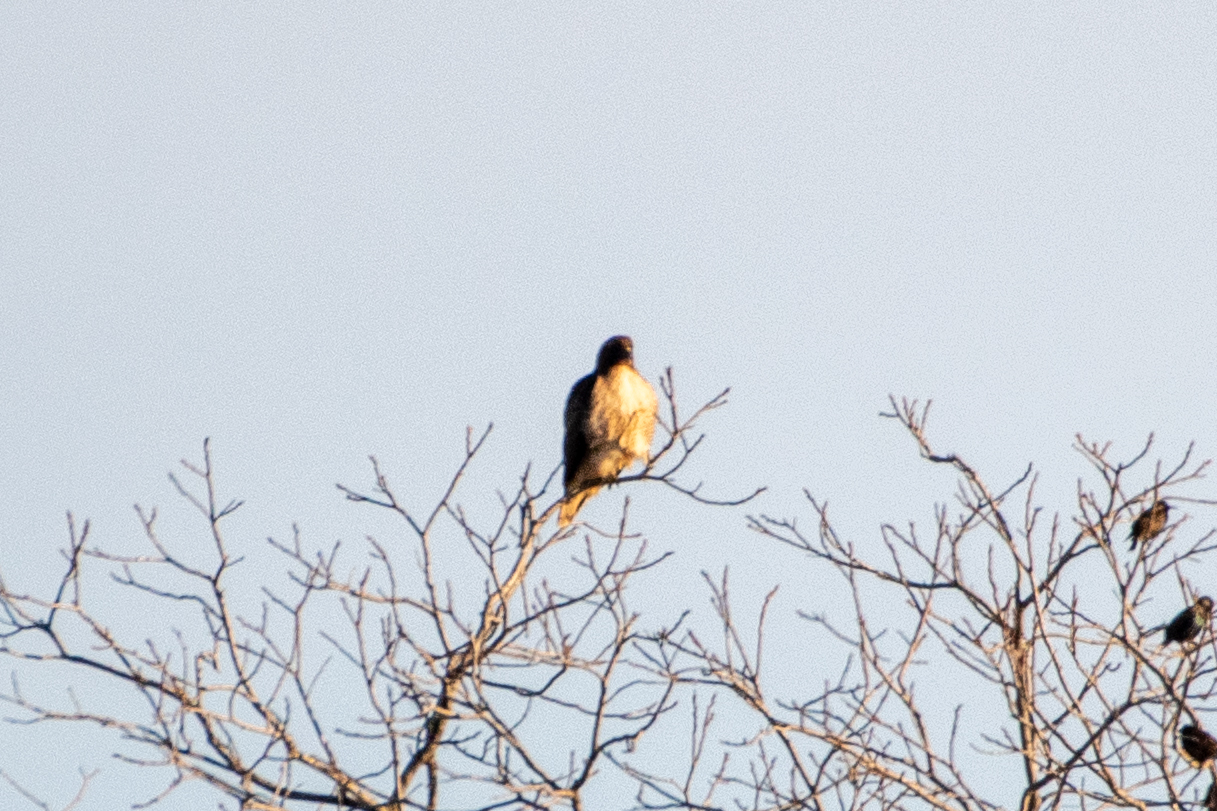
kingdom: Animalia
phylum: Chordata
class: Aves
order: Accipitriformes
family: Accipitridae
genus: Buteo
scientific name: Buteo jamaicensis
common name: Red-tailed hawk
